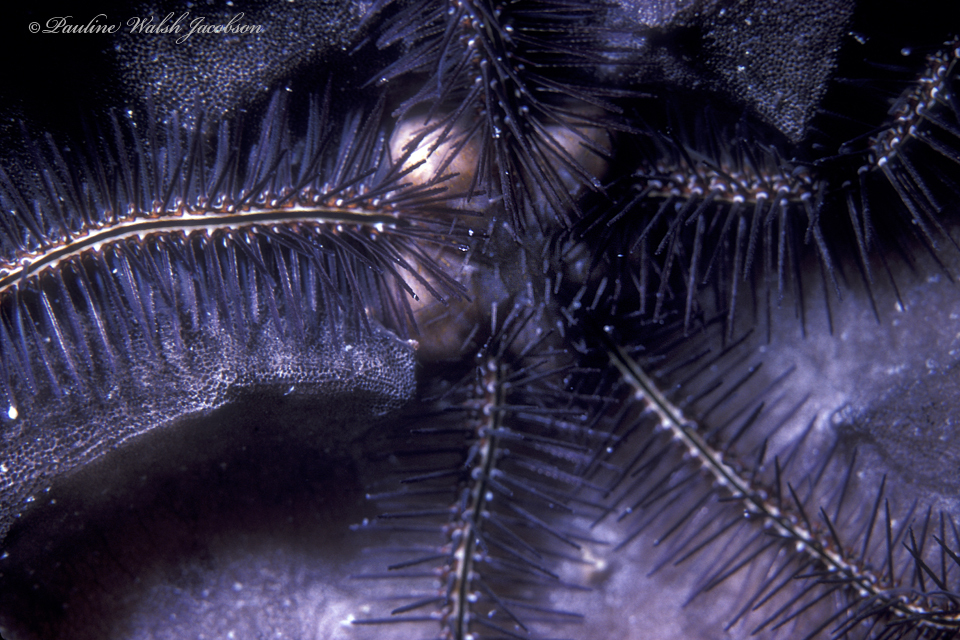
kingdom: Animalia
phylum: Echinodermata
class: Ophiuroidea
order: Amphilepidida
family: Ophiotrichidae
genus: Ophiothrix
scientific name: Ophiothrix suensonii
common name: Sponge brittle star
